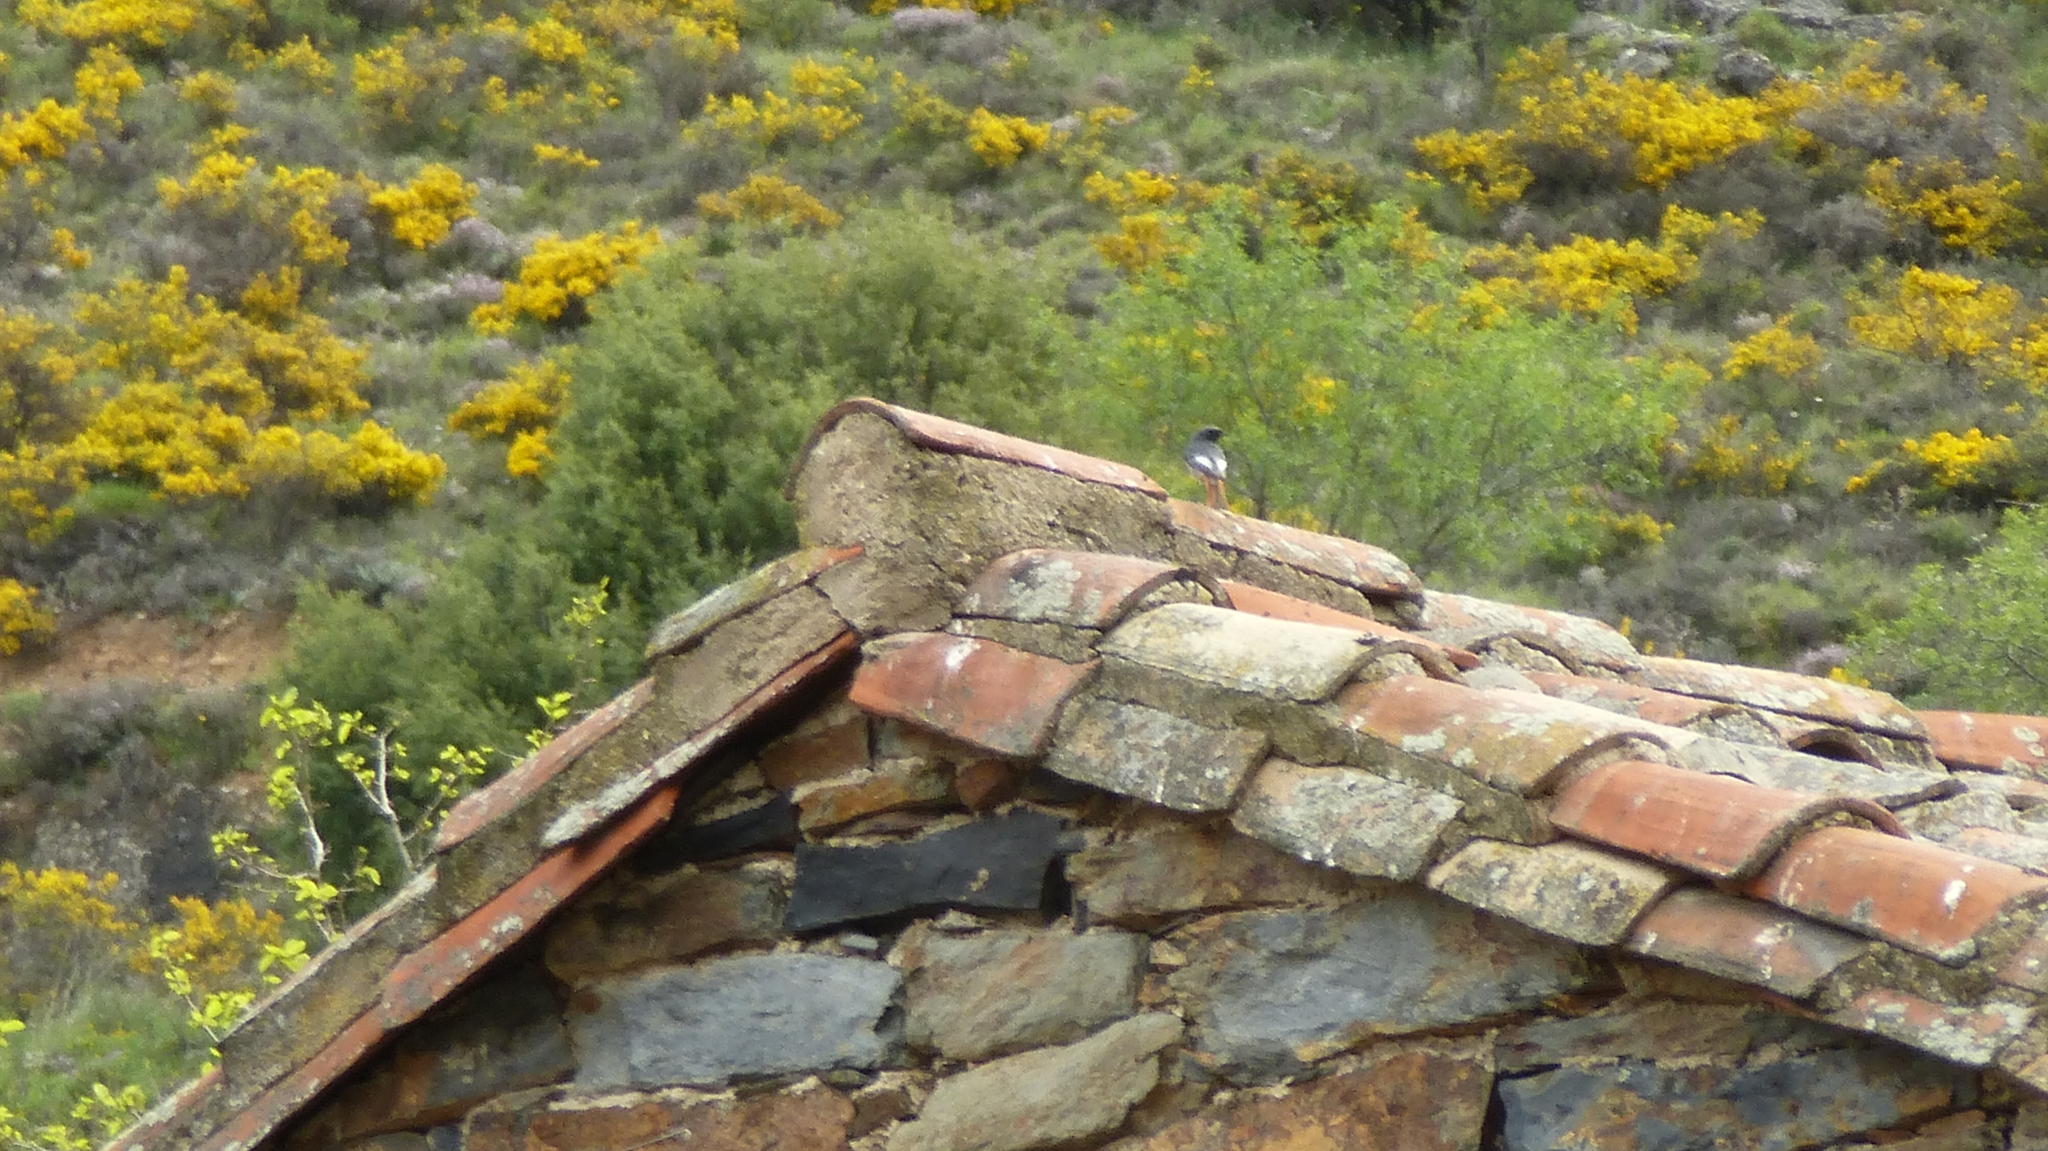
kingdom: Animalia
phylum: Chordata
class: Aves
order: Passeriformes
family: Muscicapidae
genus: Phoenicurus
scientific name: Phoenicurus ochruros
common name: Black redstart
